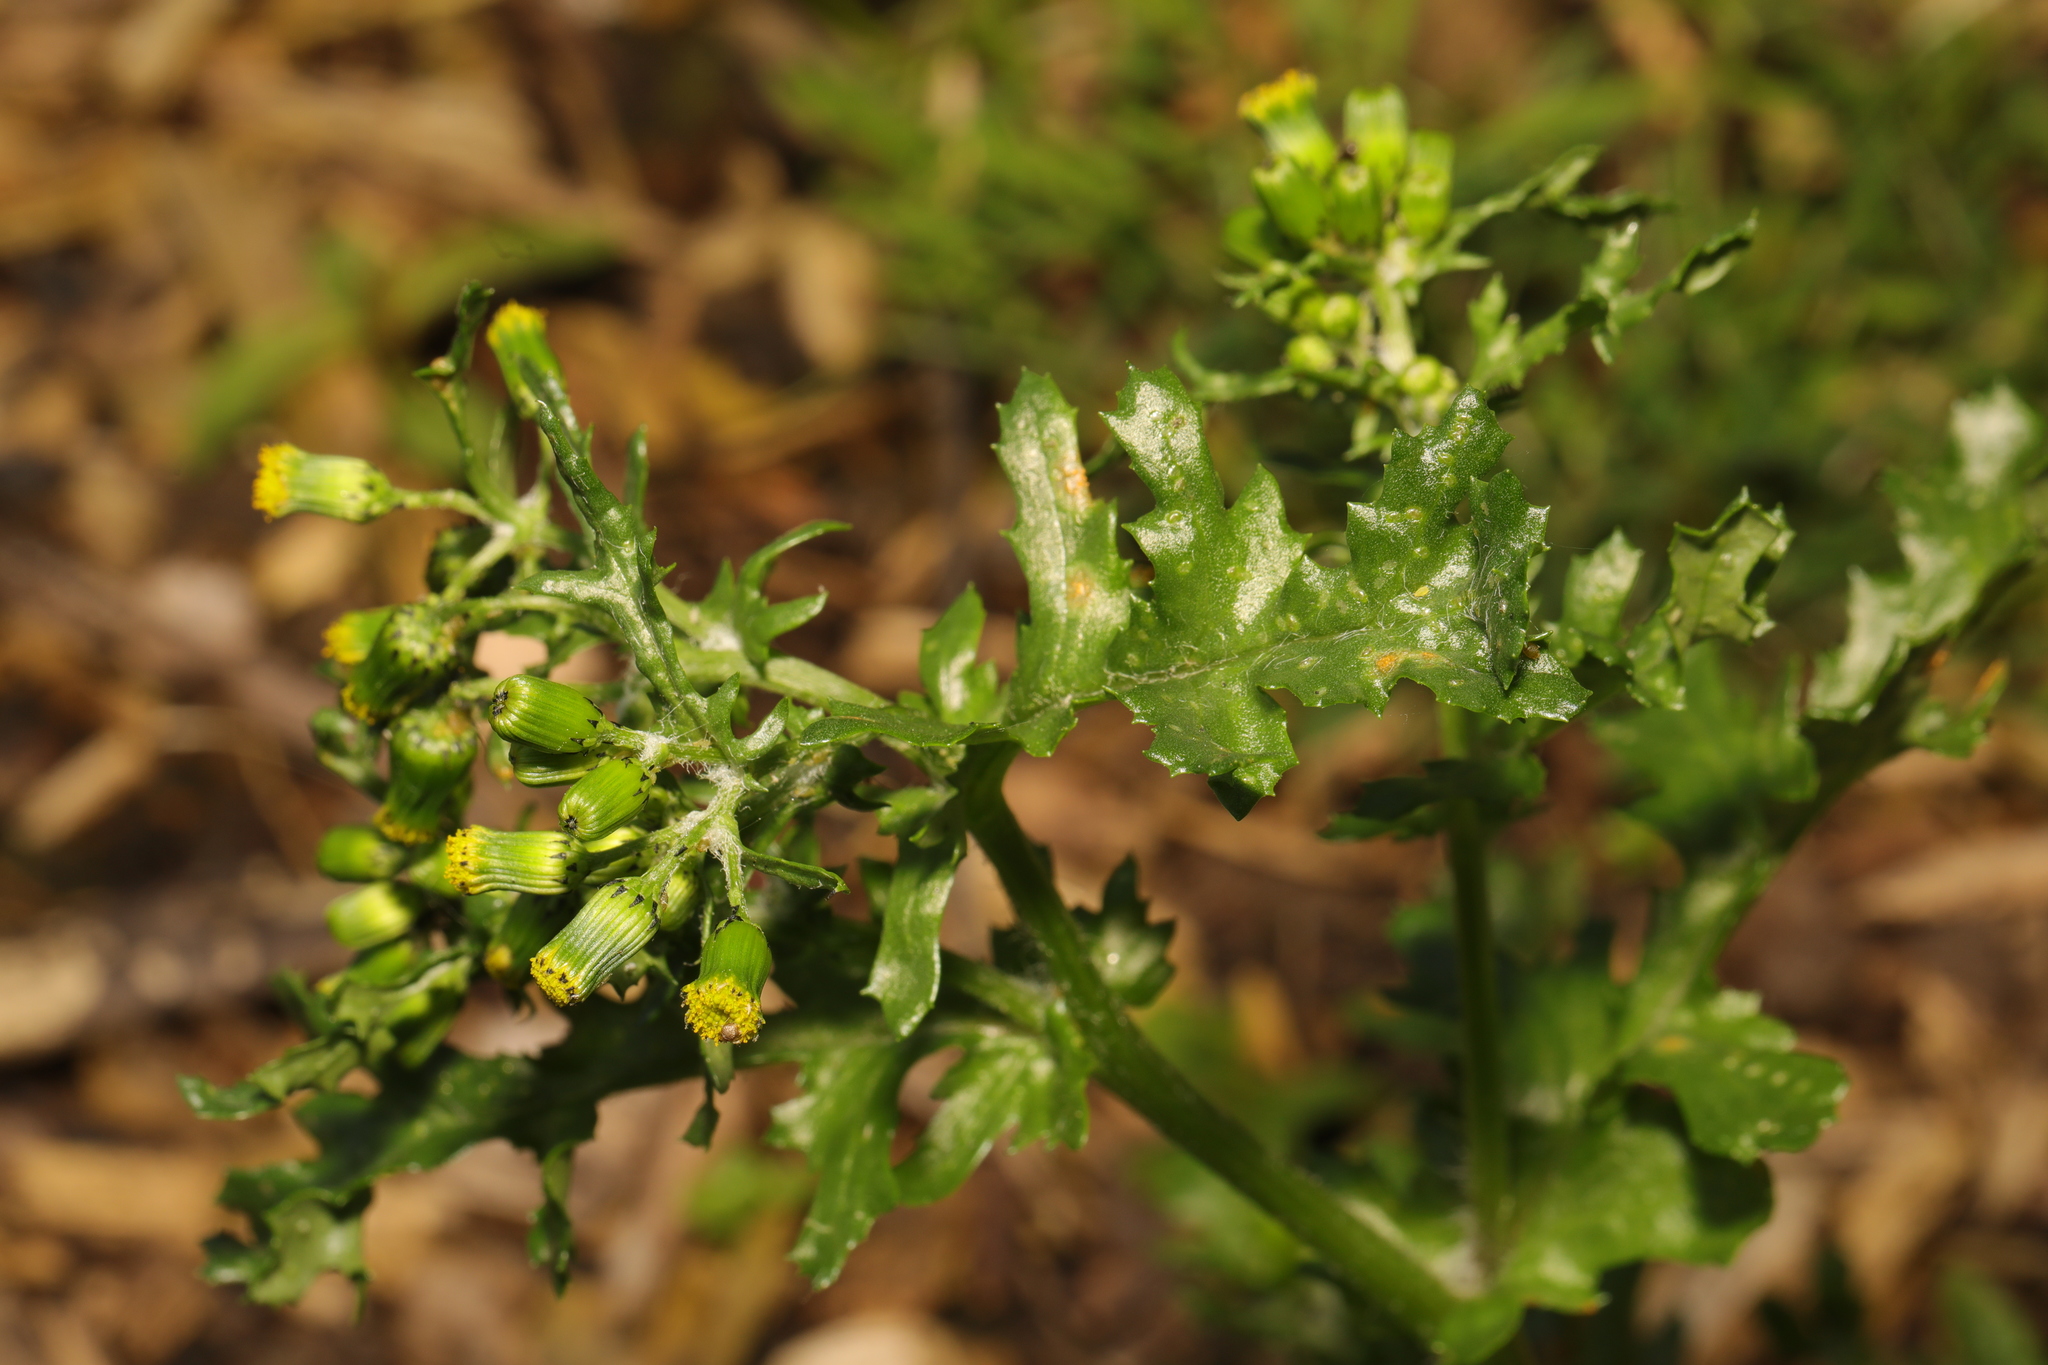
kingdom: Plantae
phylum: Tracheophyta
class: Magnoliopsida
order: Asterales
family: Asteraceae
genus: Senecio
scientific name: Senecio vulgaris
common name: Old-man-in-the-spring
